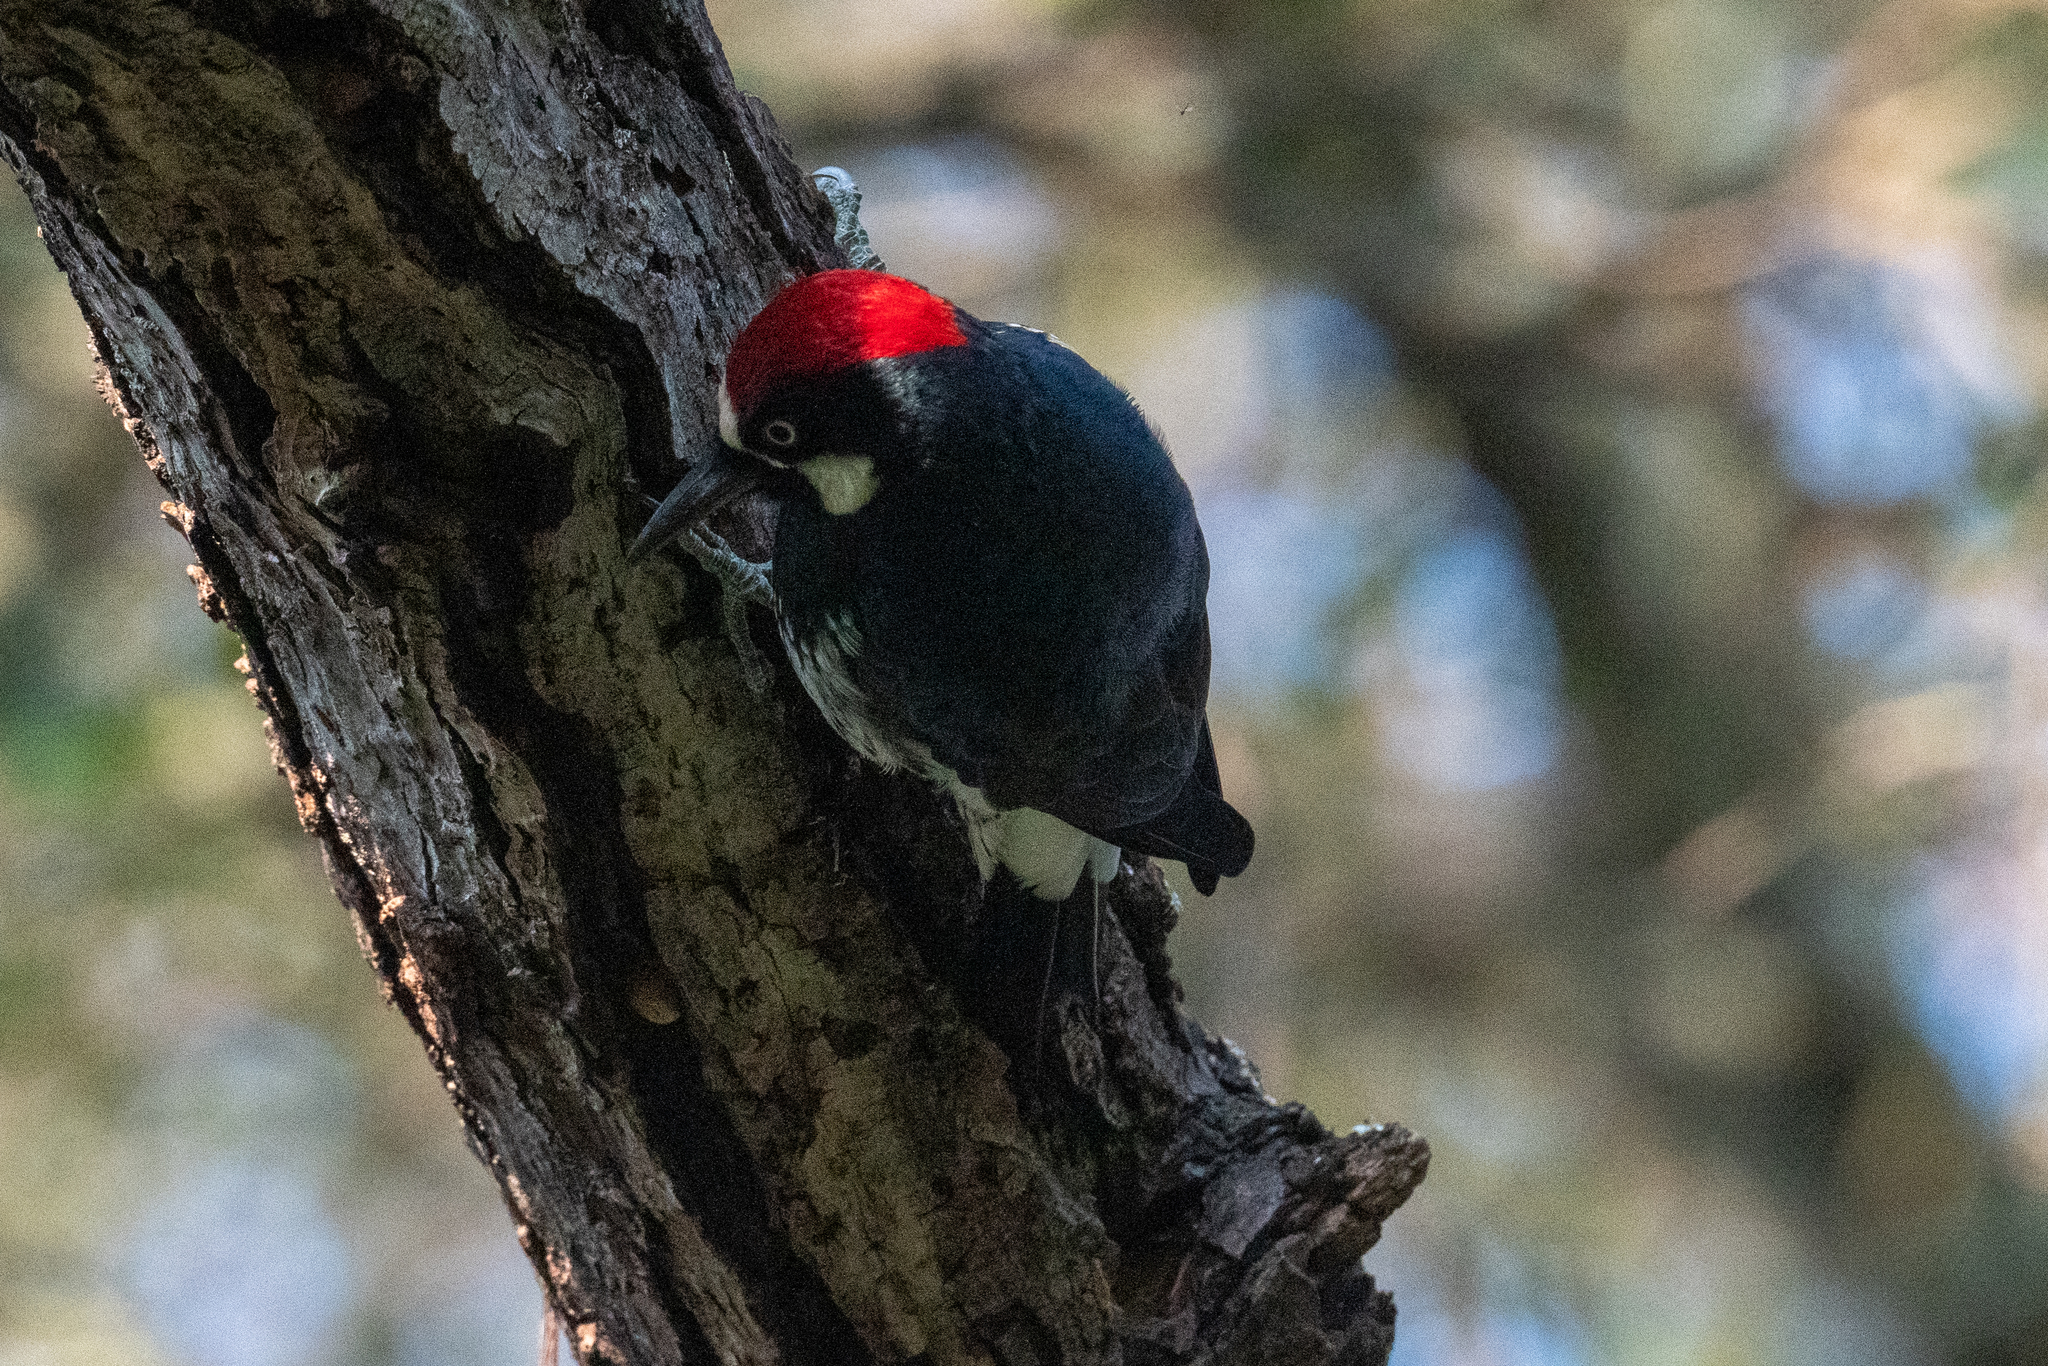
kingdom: Animalia
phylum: Chordata
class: Aves
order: Piciformes
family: Picidae
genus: Melanerpes
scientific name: Melanerpes formicivorus
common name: Acorn woodpecker
